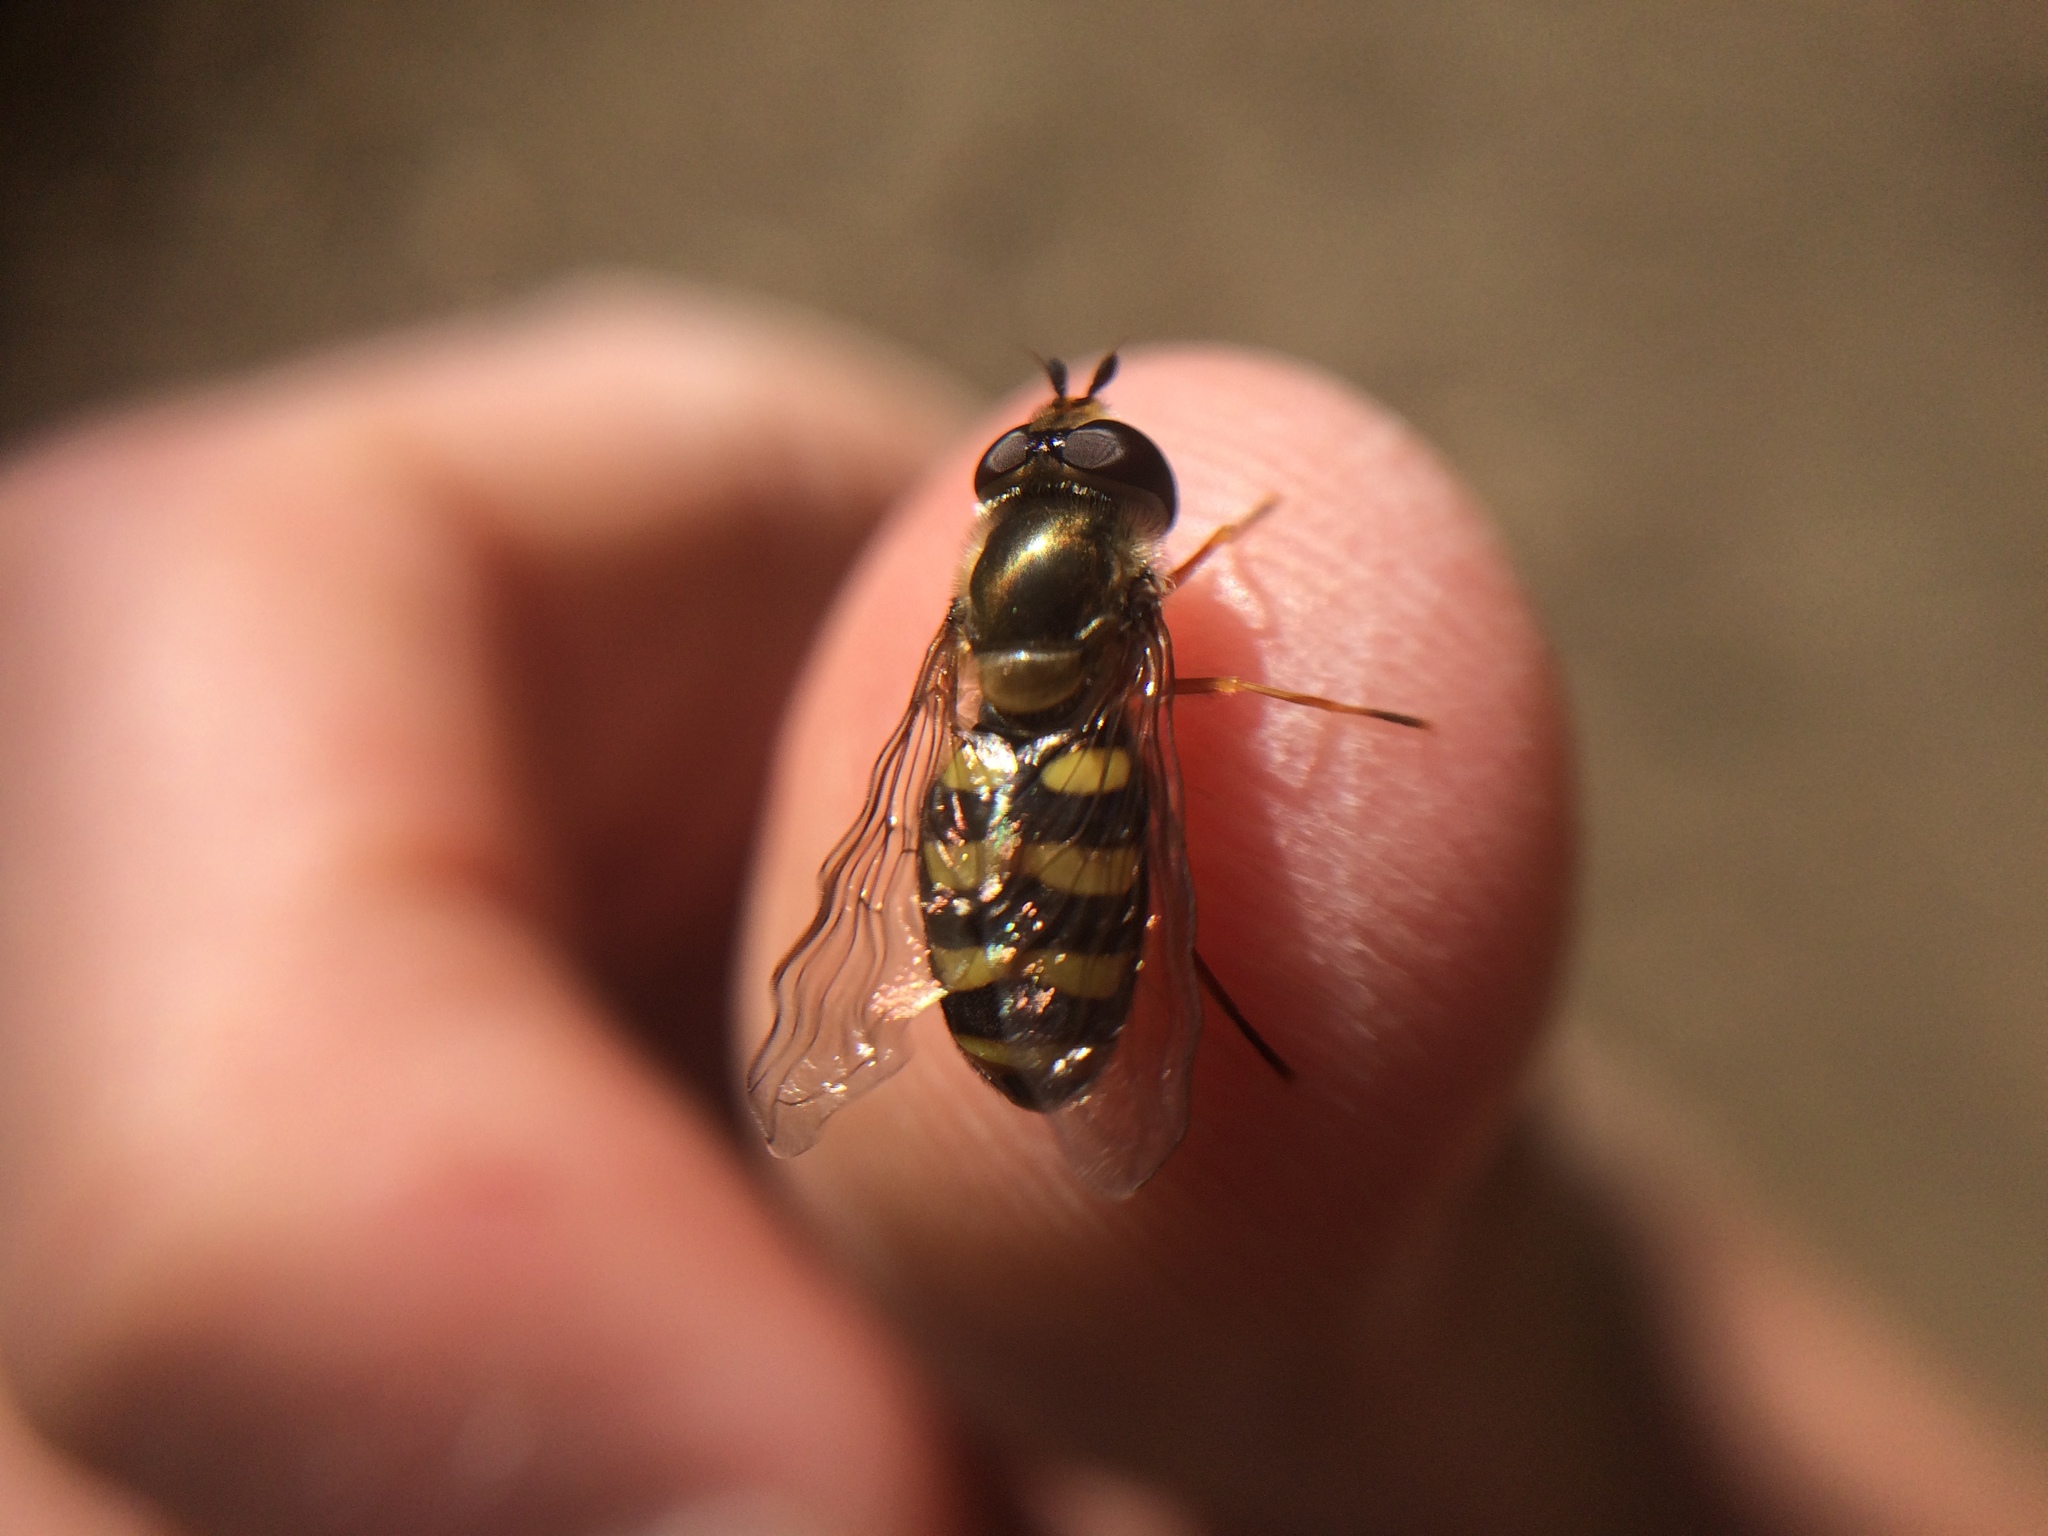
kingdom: Animalia
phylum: Arthropoda
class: Insecta
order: Diptera
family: Syrphidae
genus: Eupeodes
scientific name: Eupeodes fumipennis
